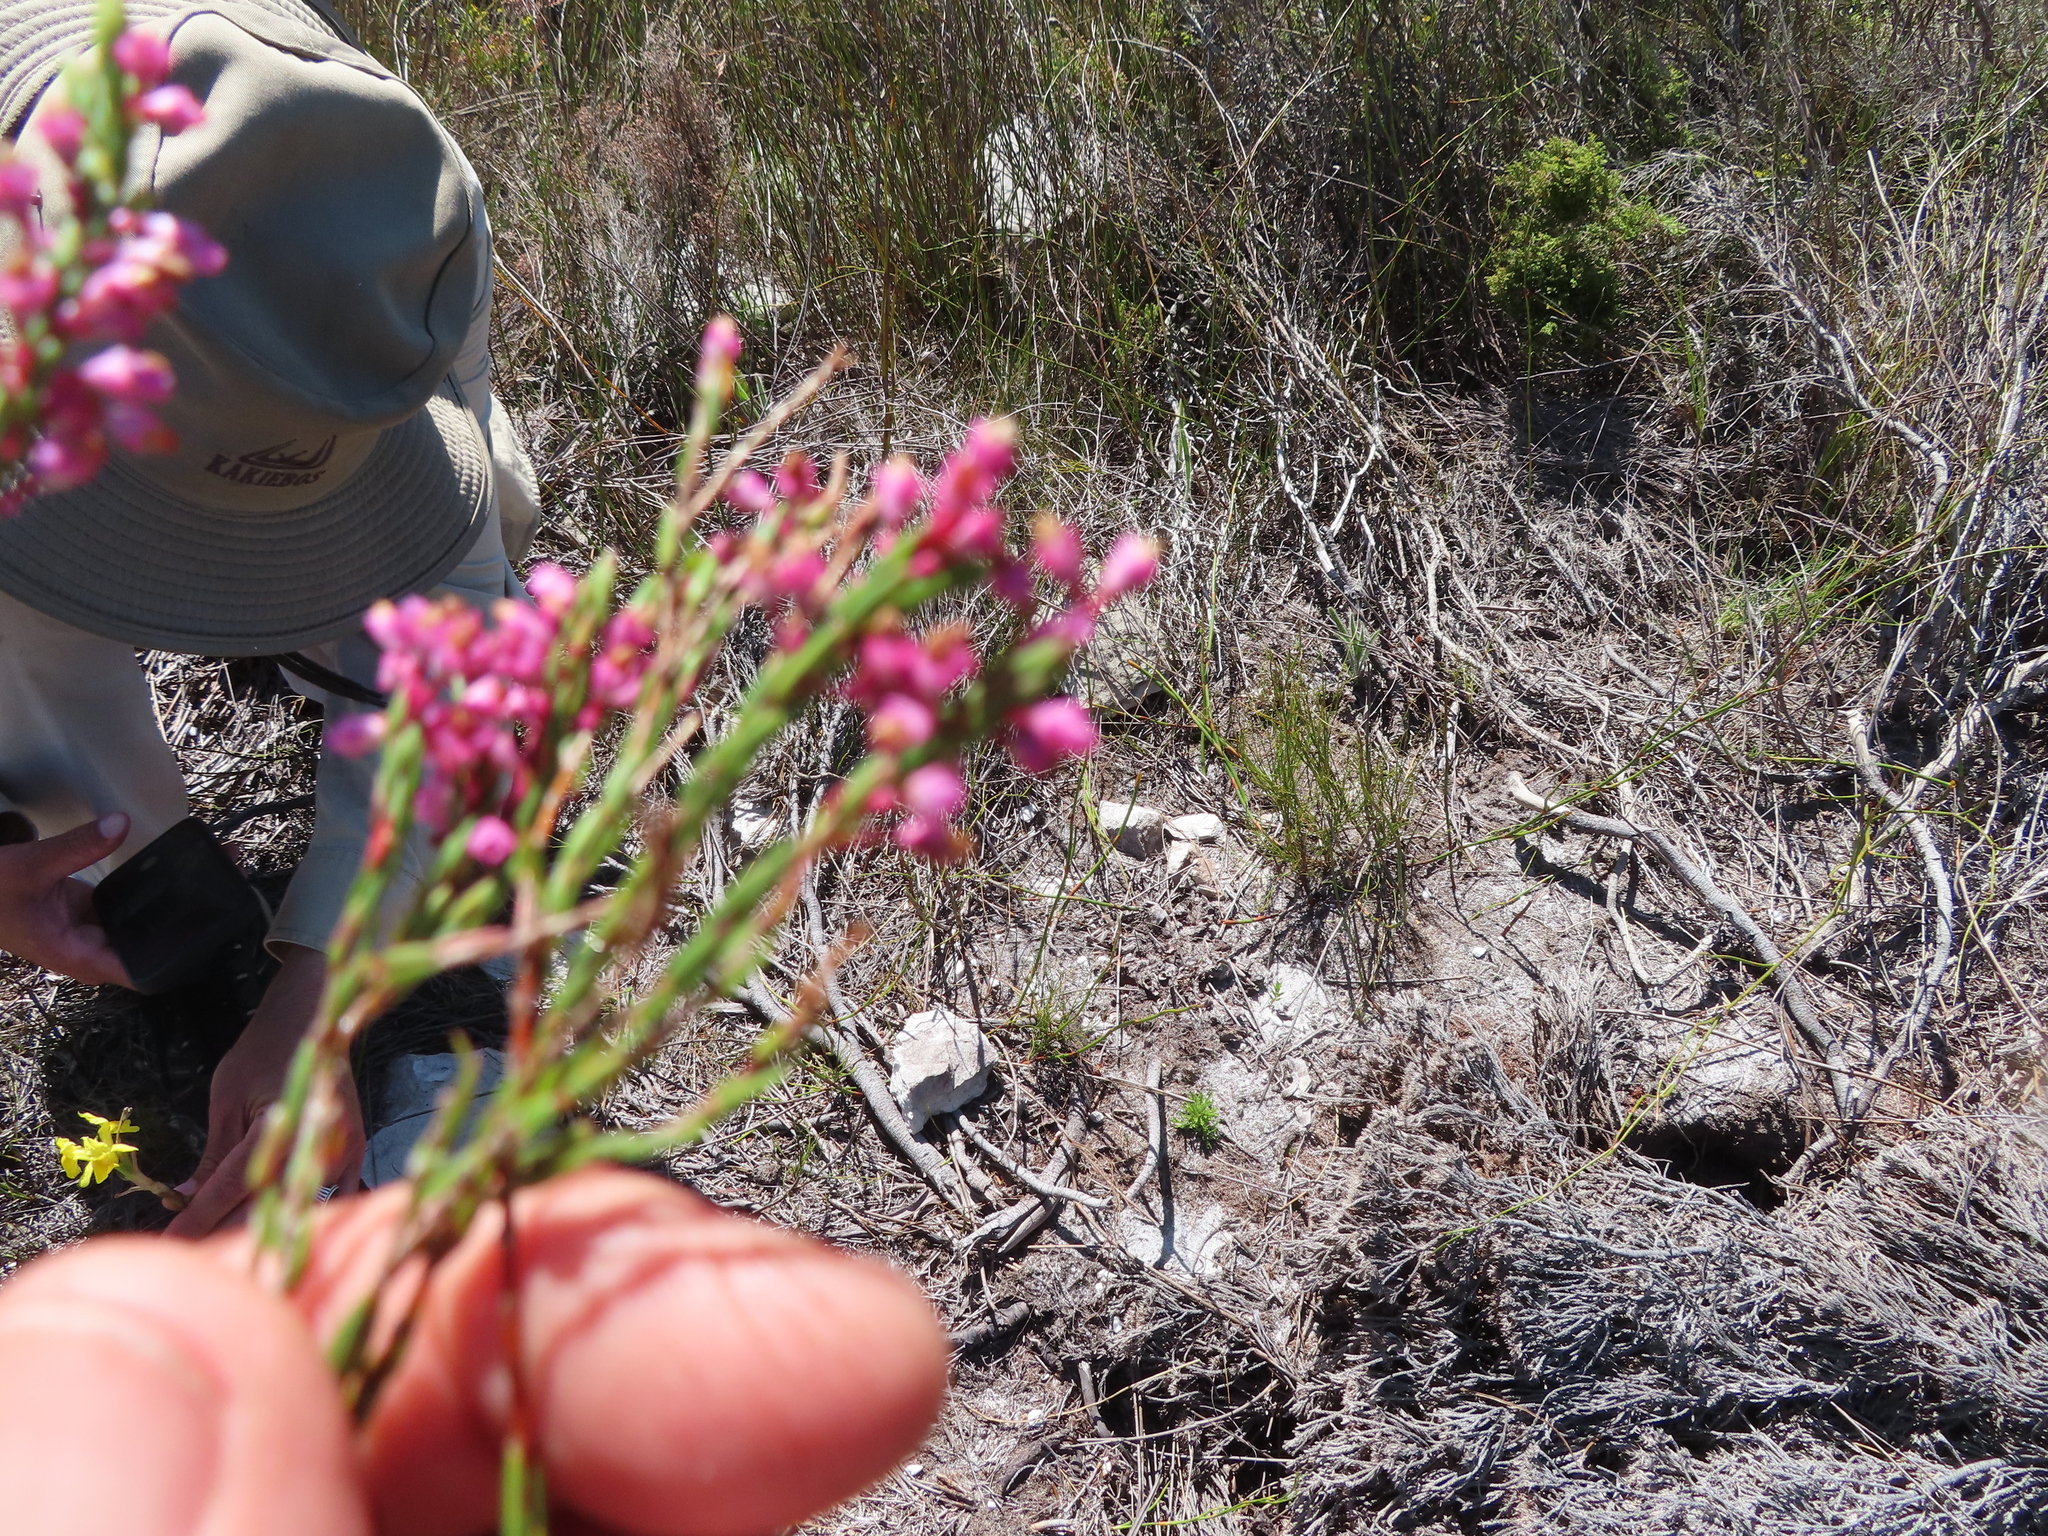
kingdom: Plantae
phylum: Tracheophyta
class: Magnoliopsida
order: Ericales
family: Ericaceae
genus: Erica
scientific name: Erica corifolia
